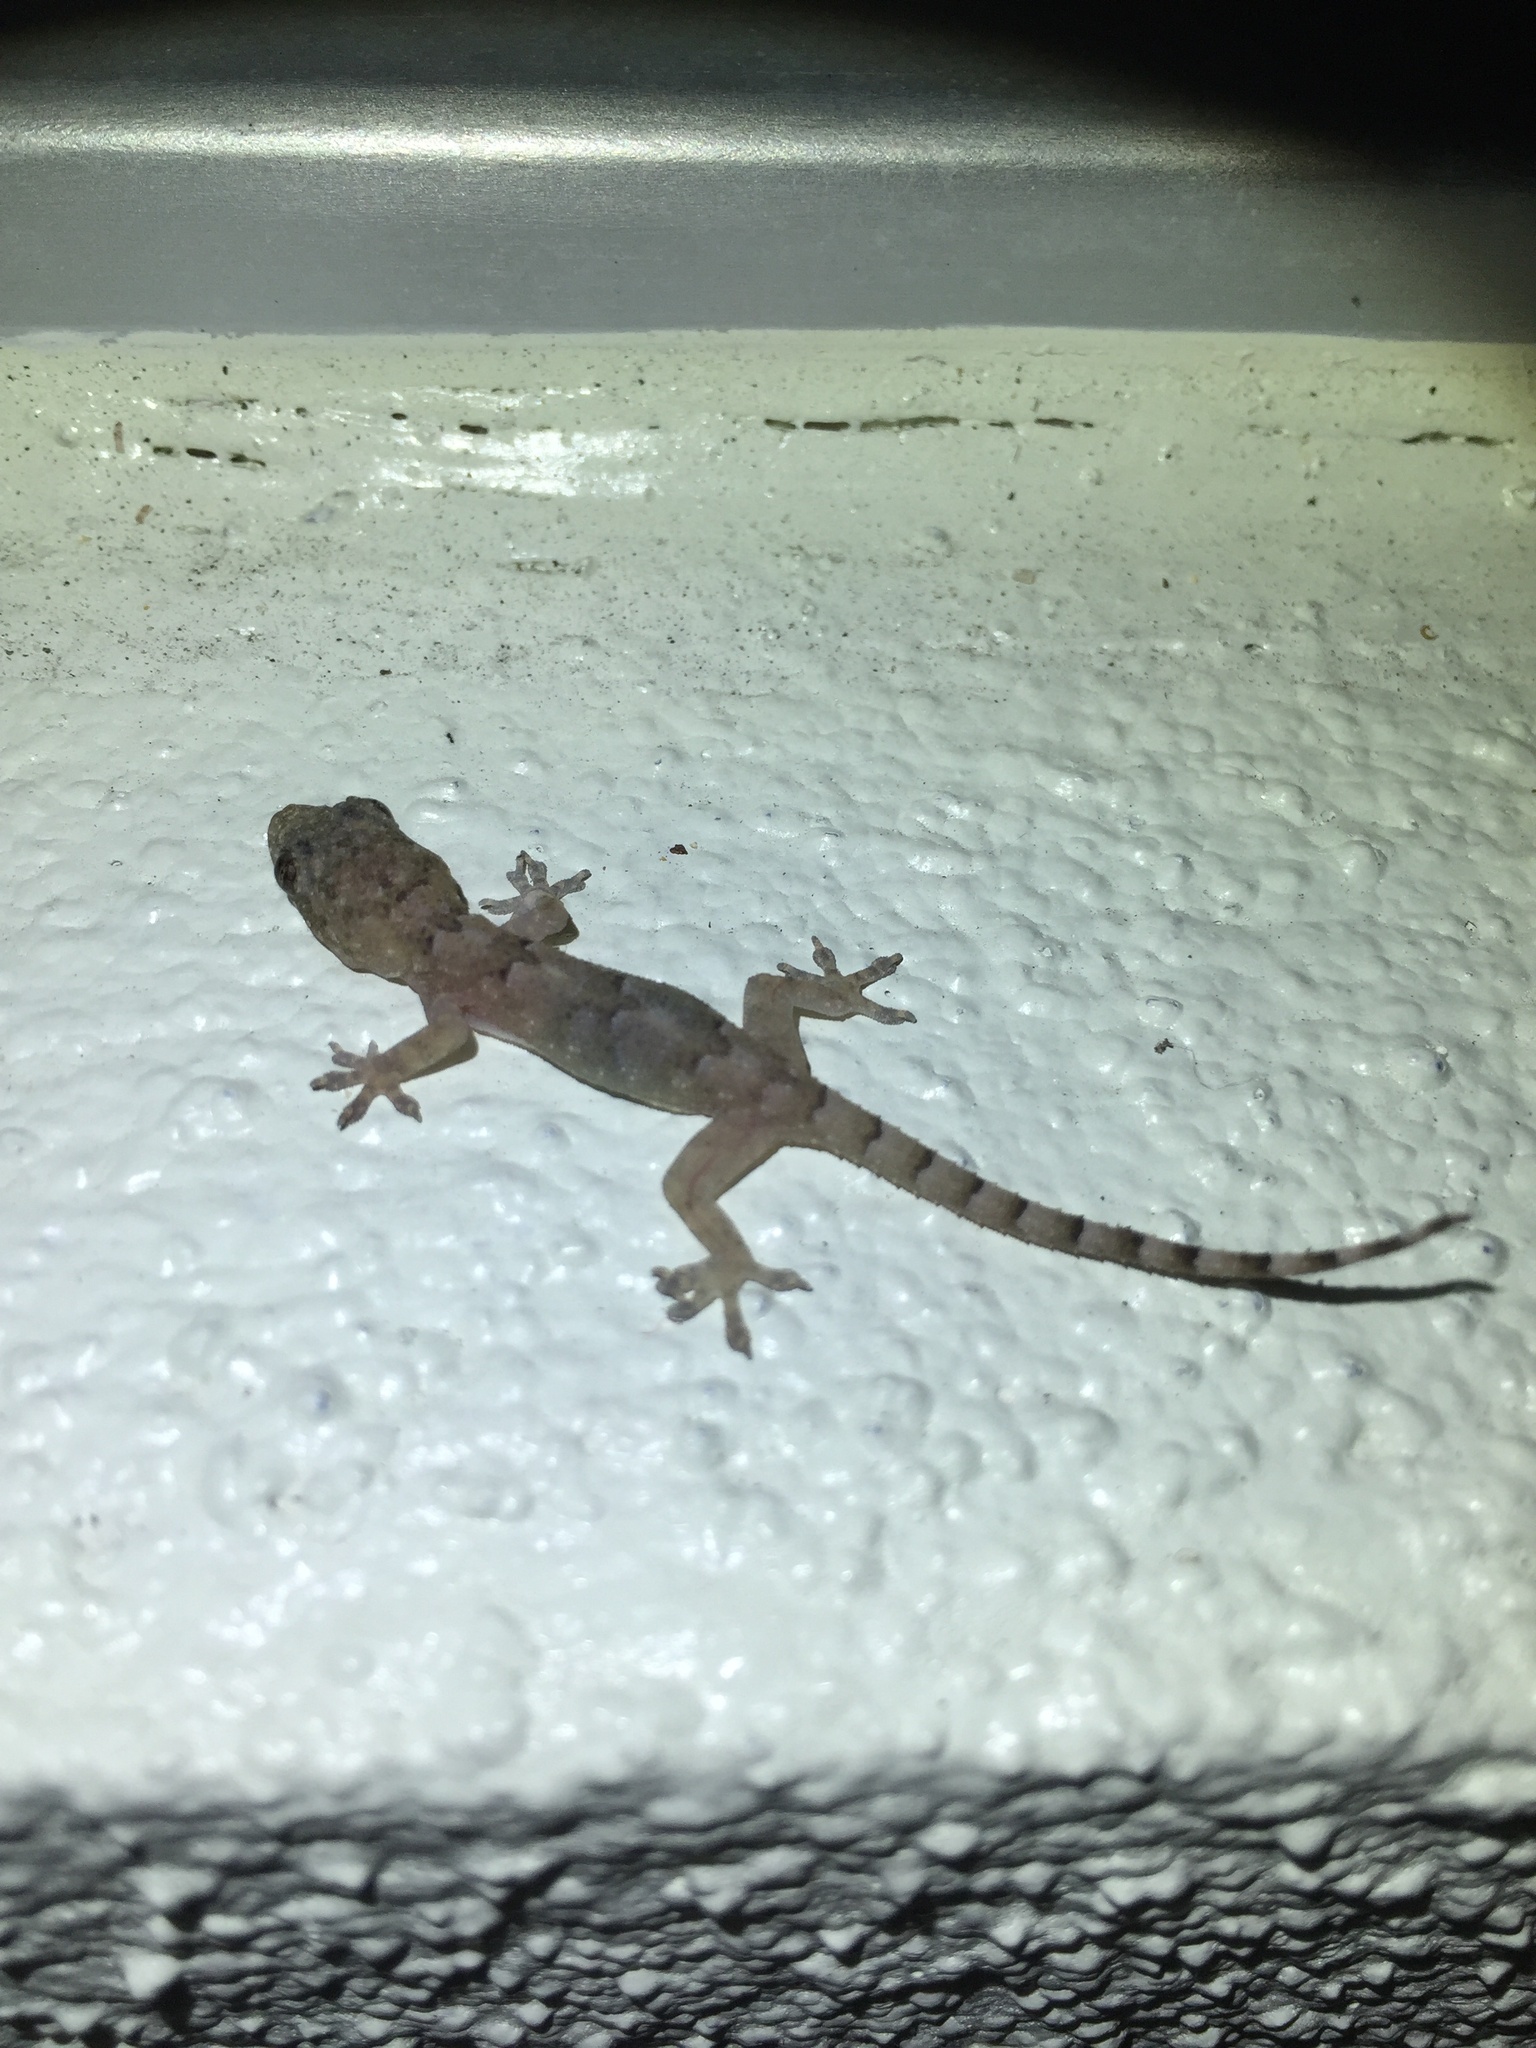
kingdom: Animalia
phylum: Chordata
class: Squamata
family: Gekkonidae
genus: Hemidactylus
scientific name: Hemidactylus mabouia
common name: House gecko
